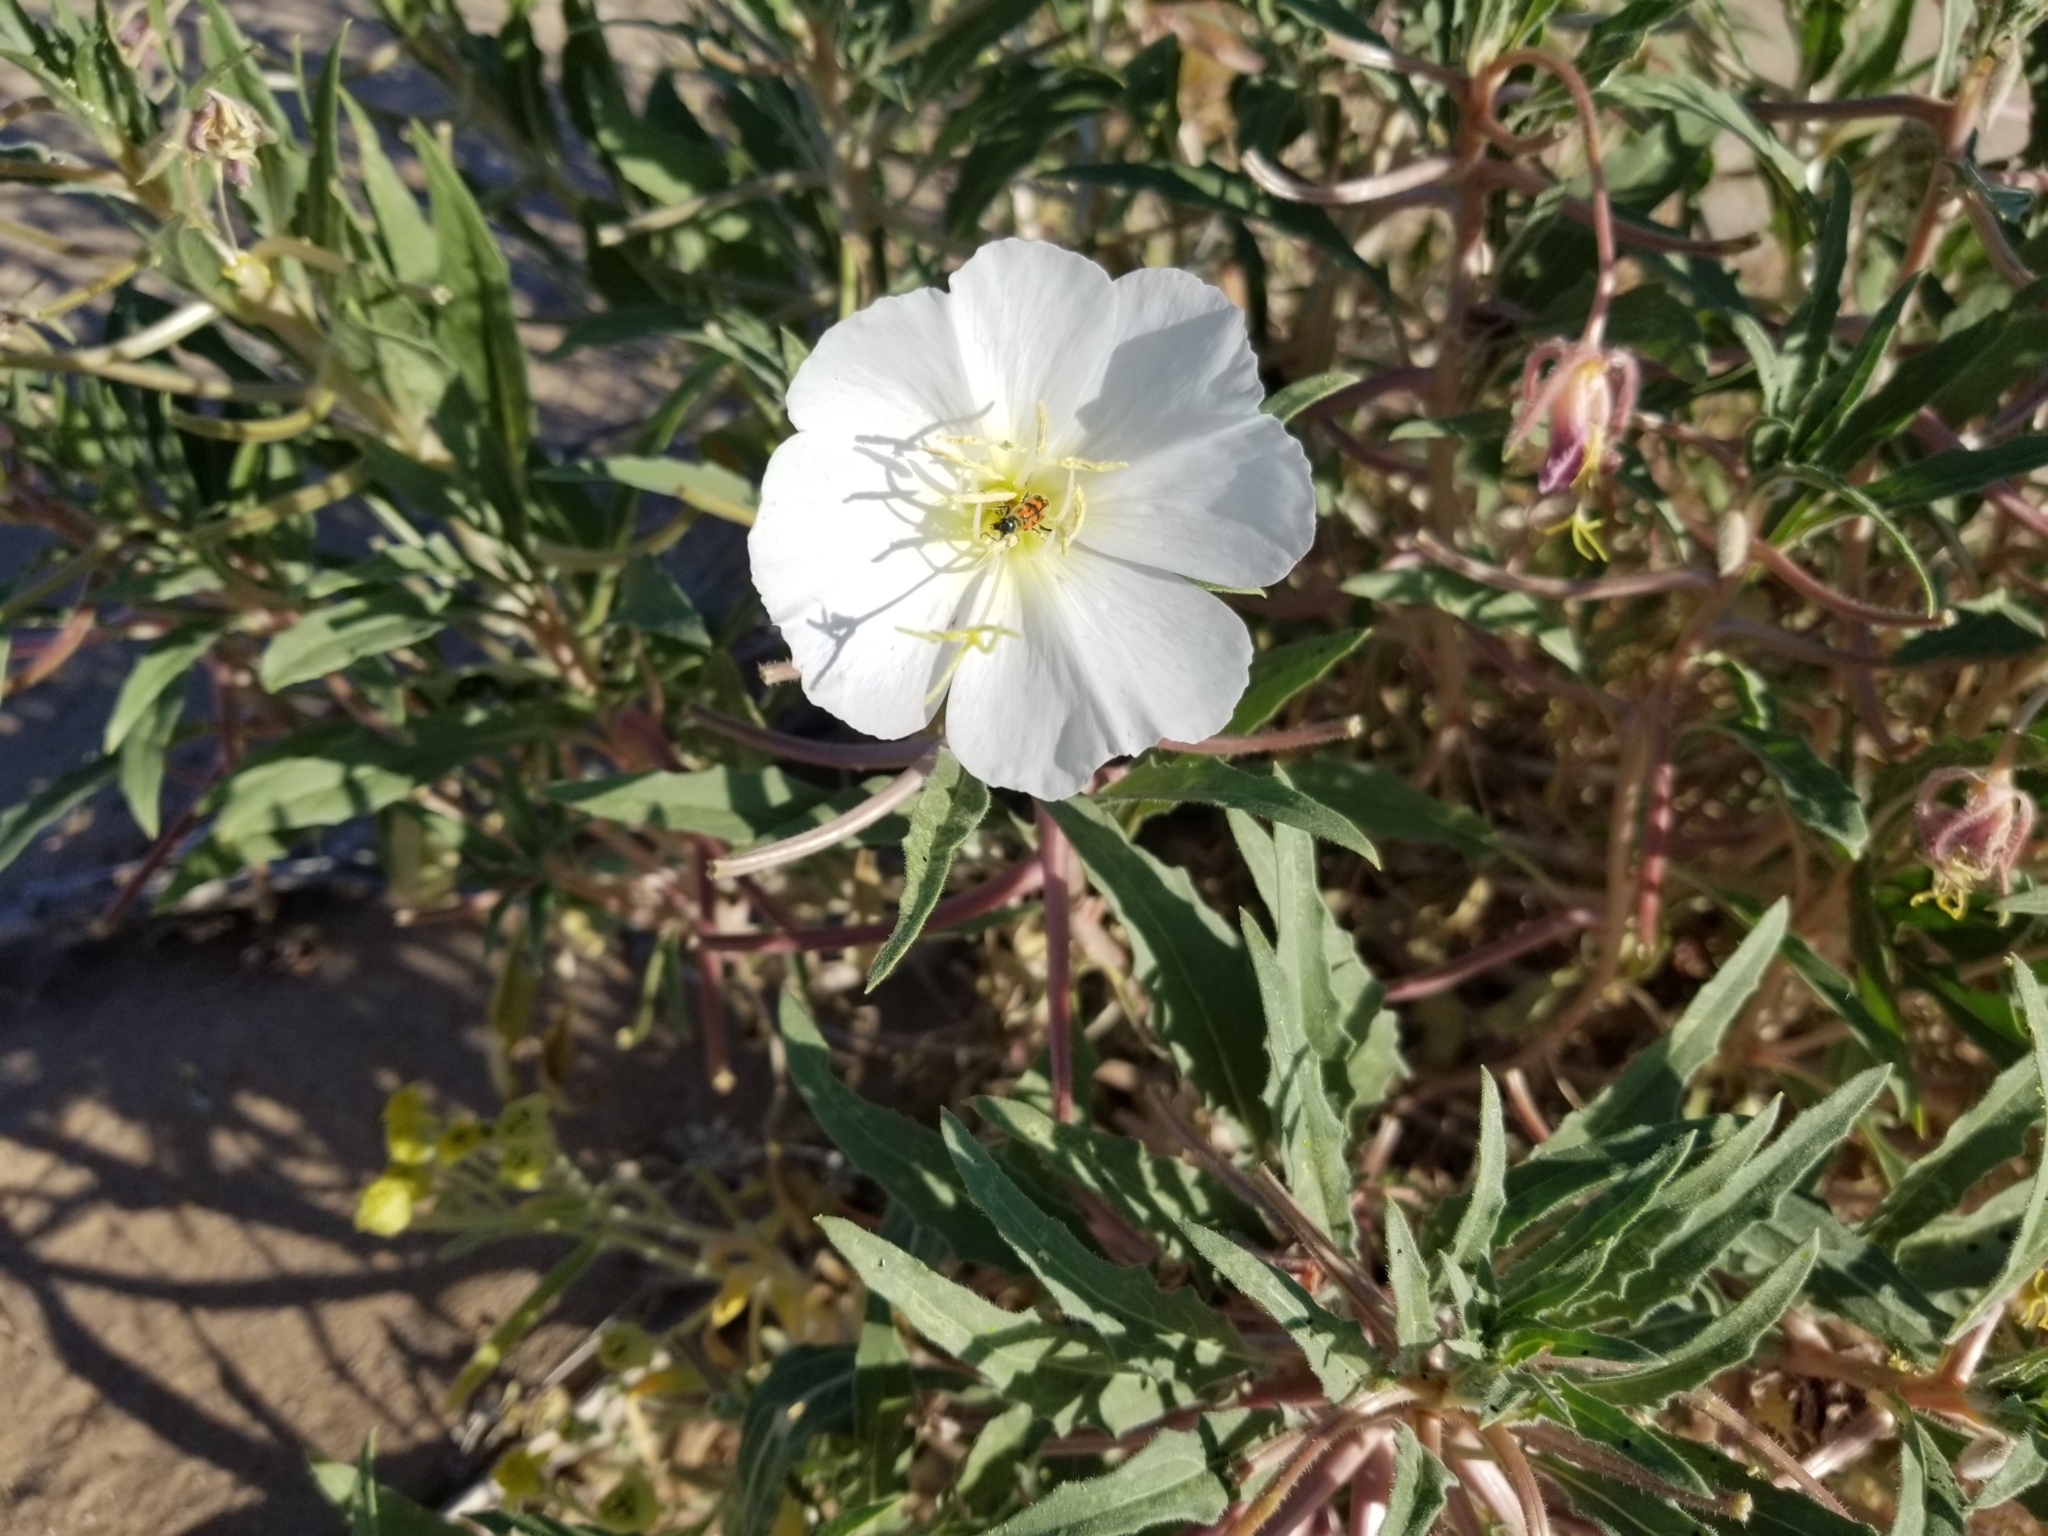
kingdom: Plantae
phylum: Tracheophyta
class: Magnoliopsida
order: Myrtales
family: Onagraceae
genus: Oenothera
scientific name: Oenothera deltoides
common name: Basket evening-primrose
